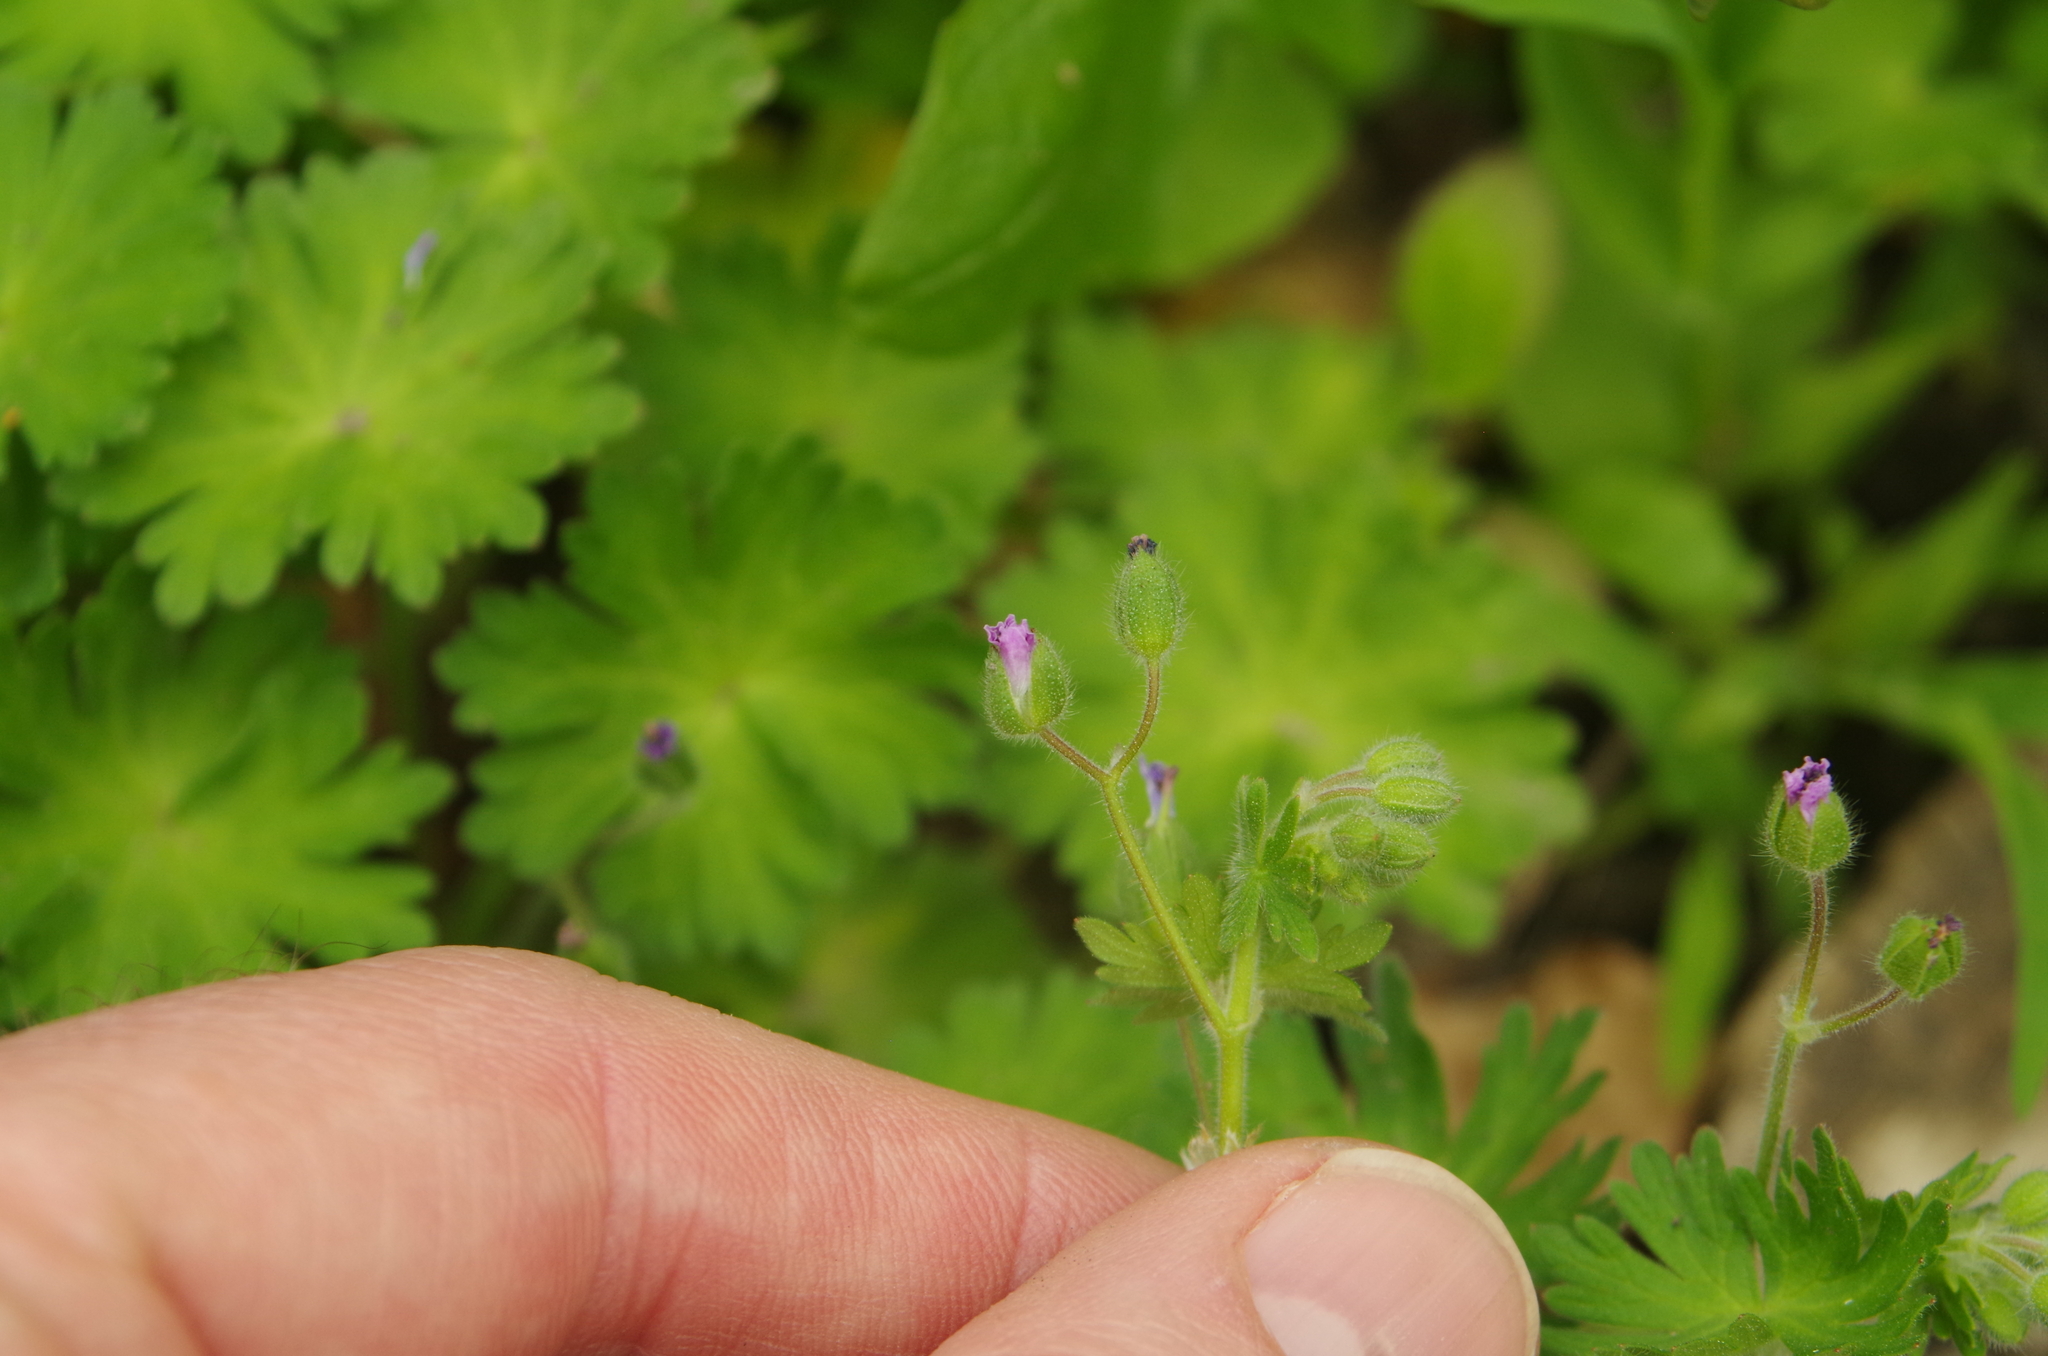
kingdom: Plantae
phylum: Tracheophyta
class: Magnoliopsida
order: Geraniales
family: Geraniaceae
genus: Geranium
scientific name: Geranium molle
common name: Dove's-foot crane's-bill
